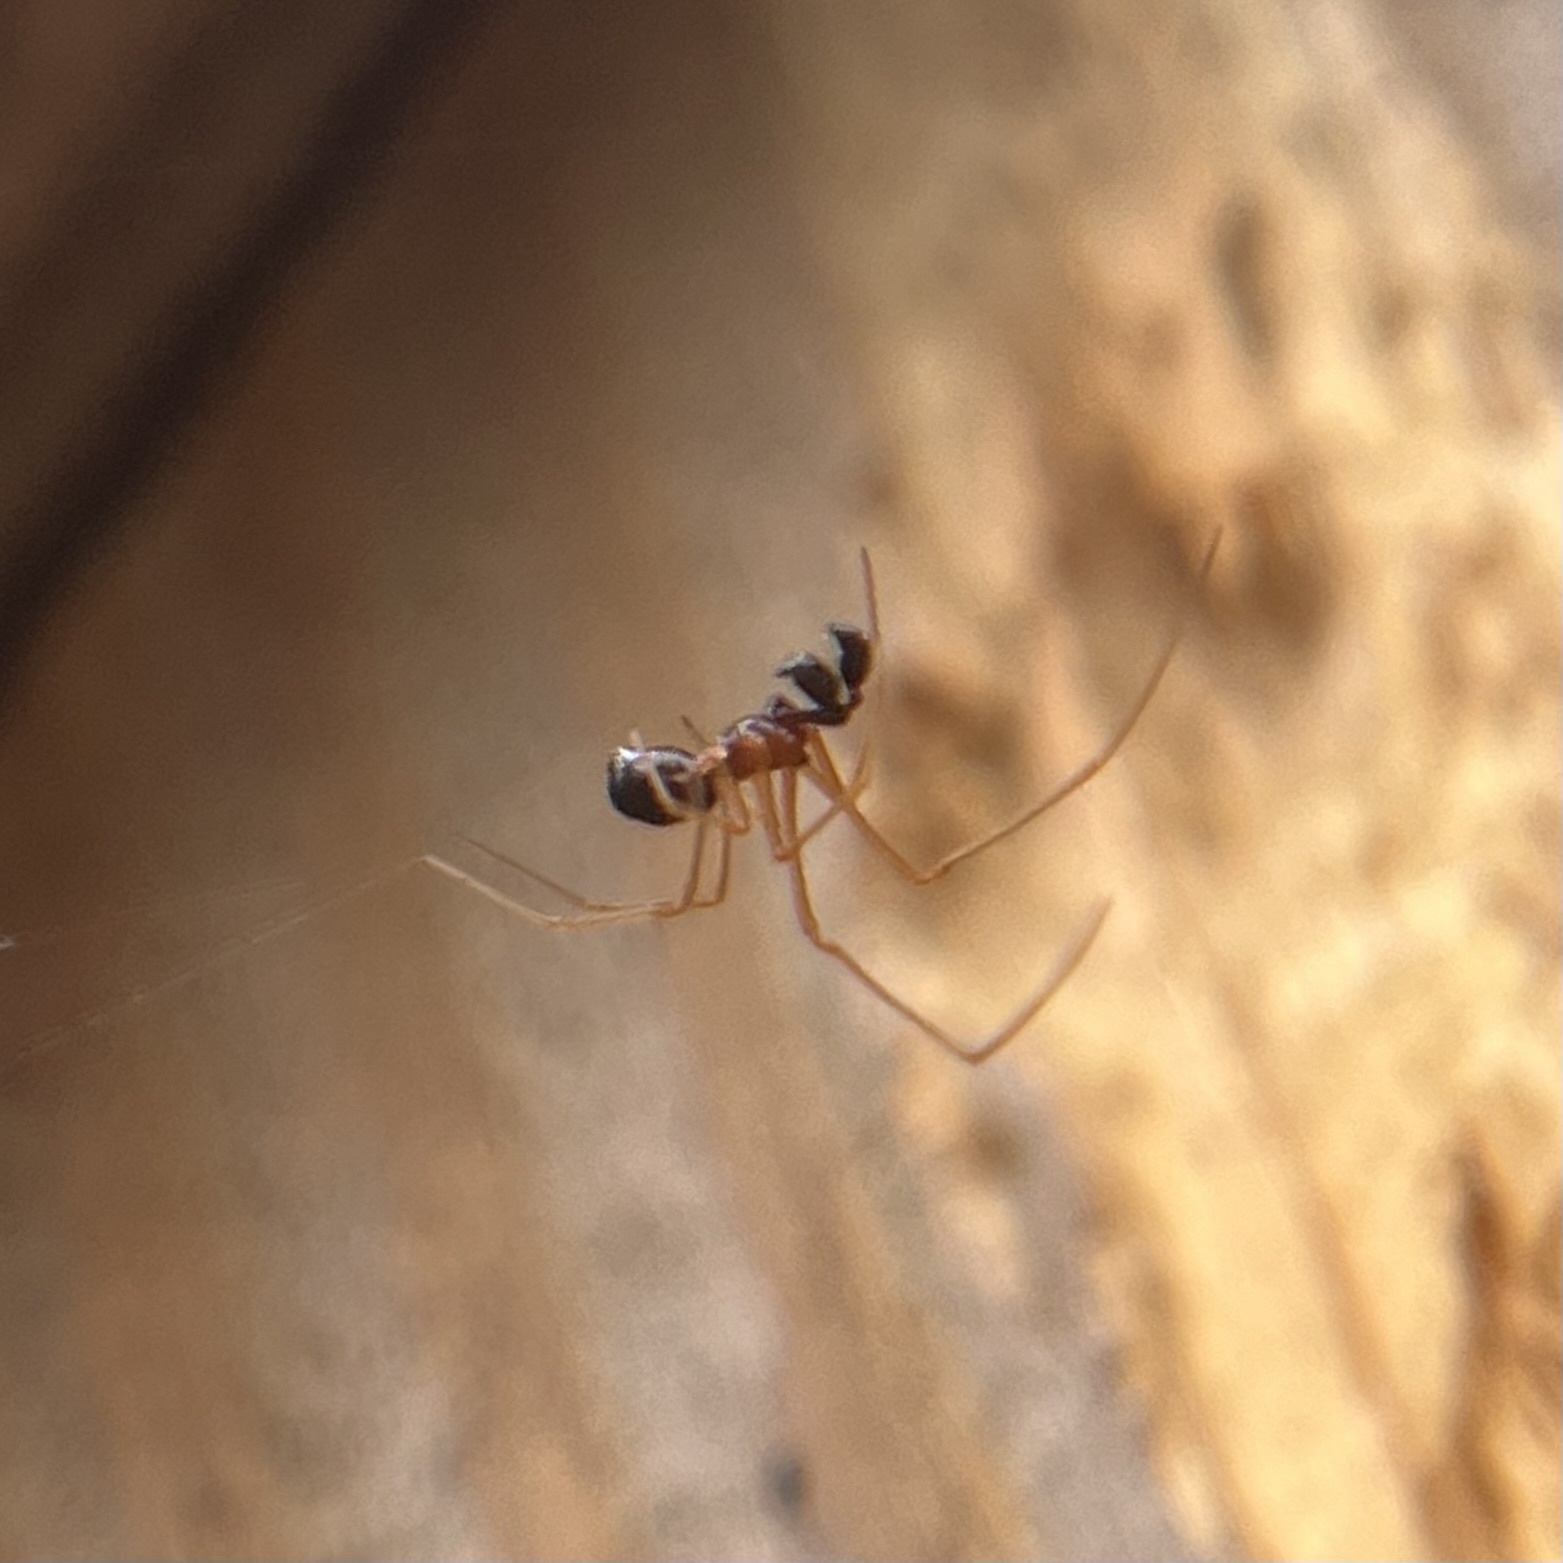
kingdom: Animalia
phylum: Arthropoda
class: Arachnida
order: Araneae
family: Theridiidae
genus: Neottiura
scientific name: Neottiura bimaculata
